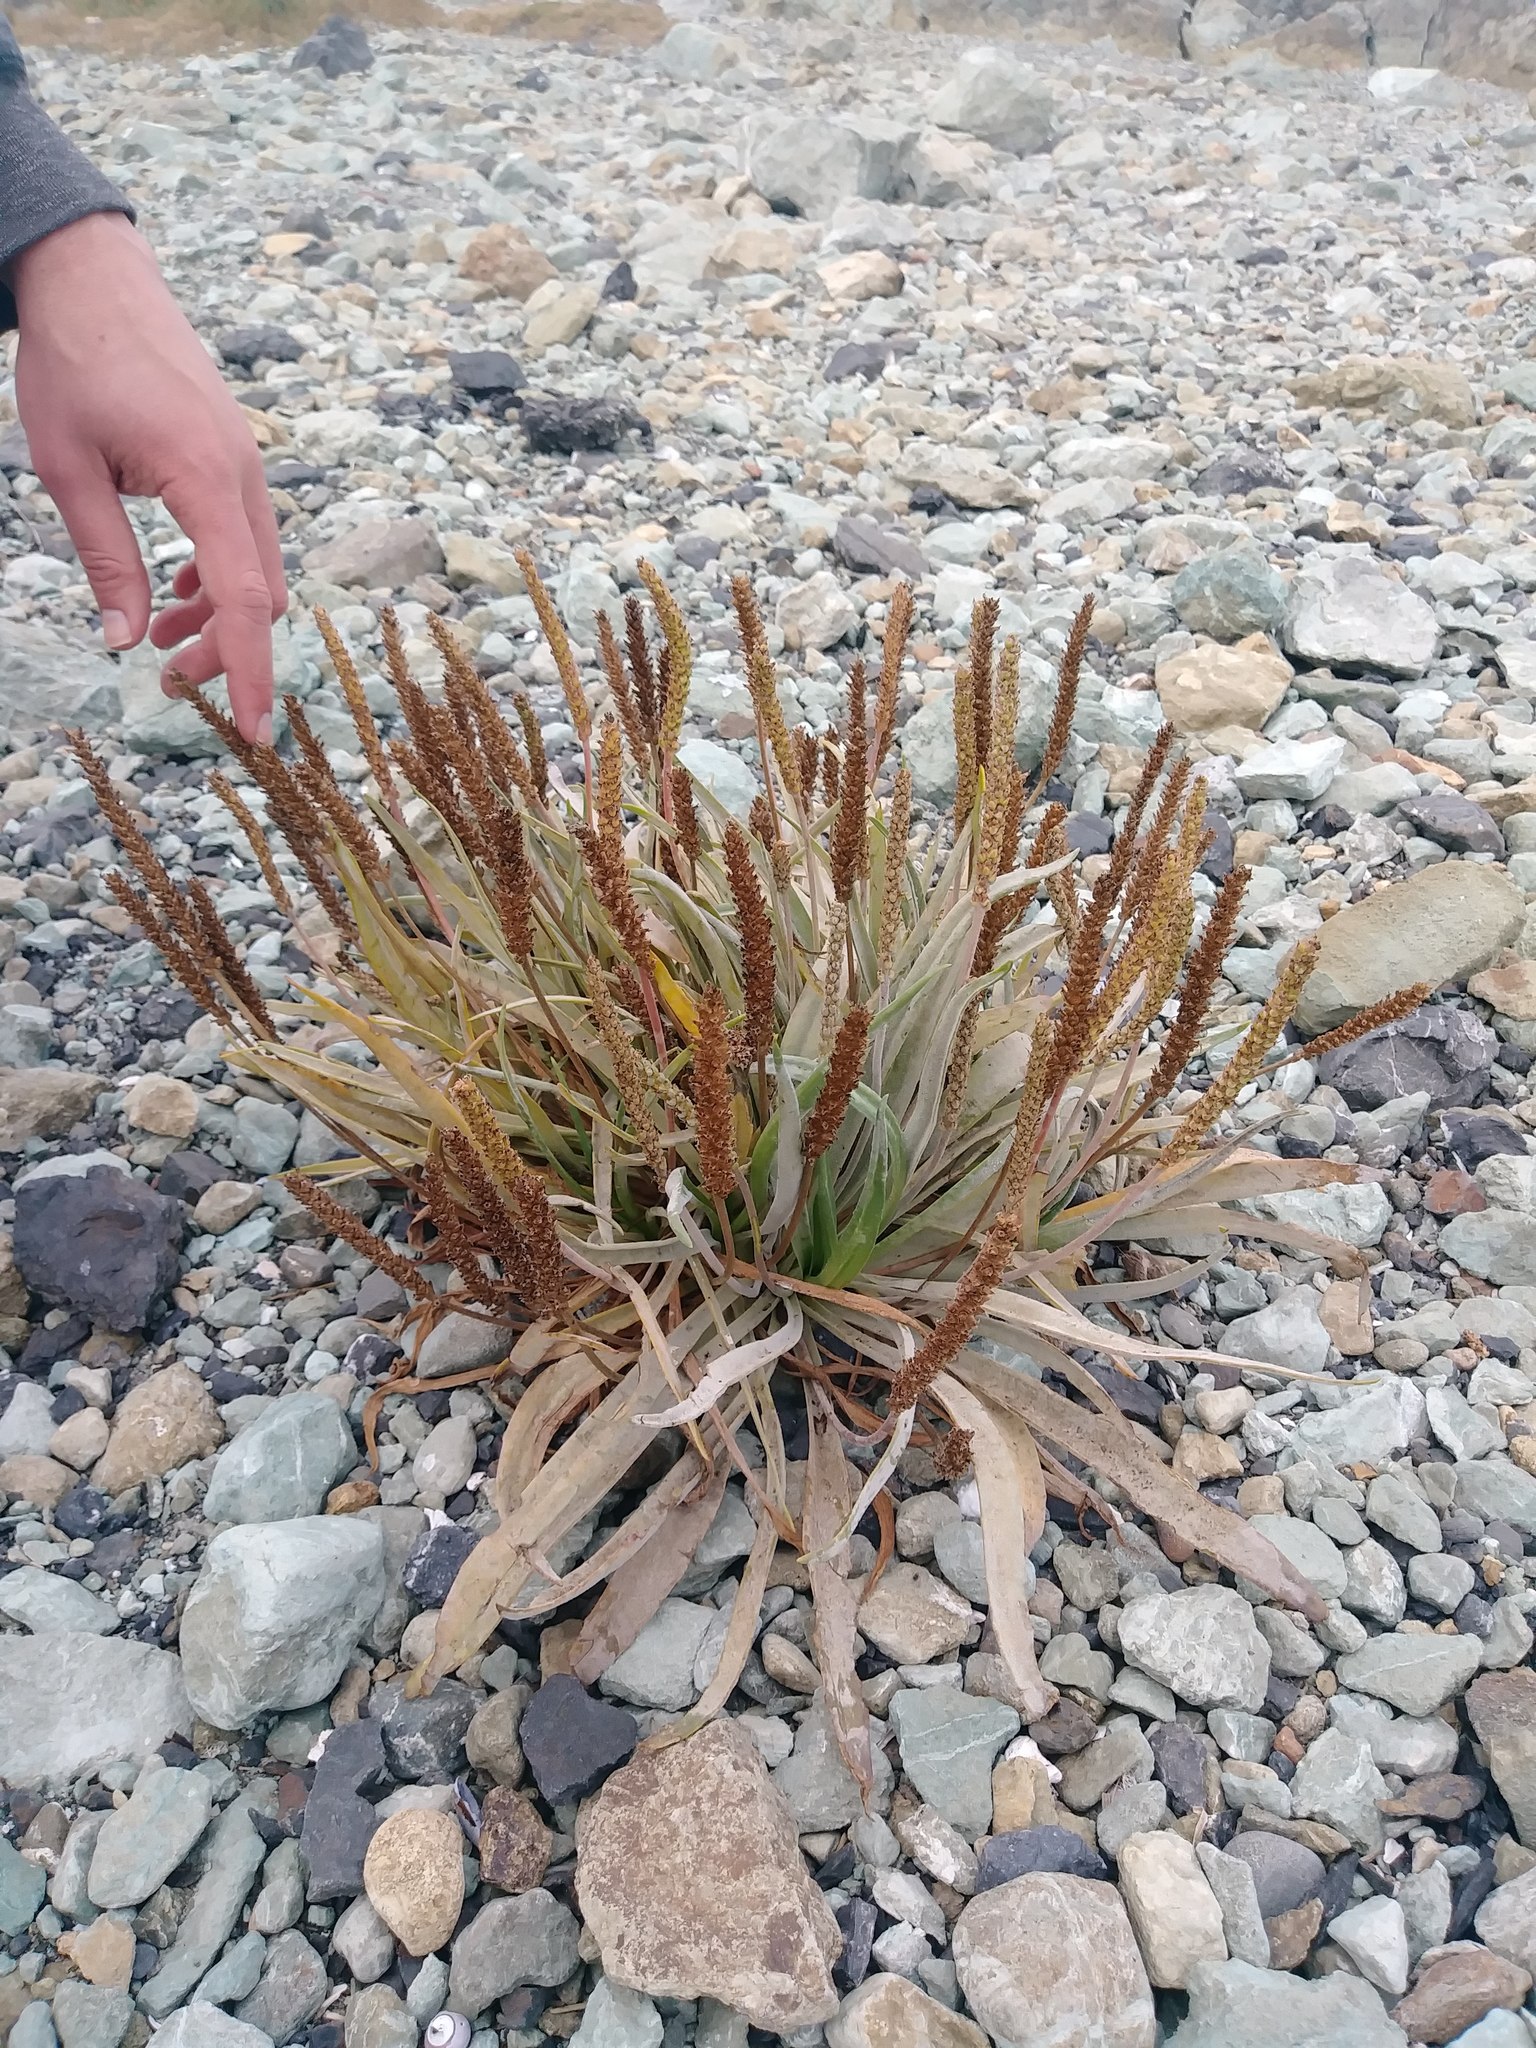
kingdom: Plantae
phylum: Tracheophyta
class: Magnoliopsida
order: Lamiales
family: Plantaginaceae
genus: Plantago
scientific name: Plantago maritima
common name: Sea plantain
